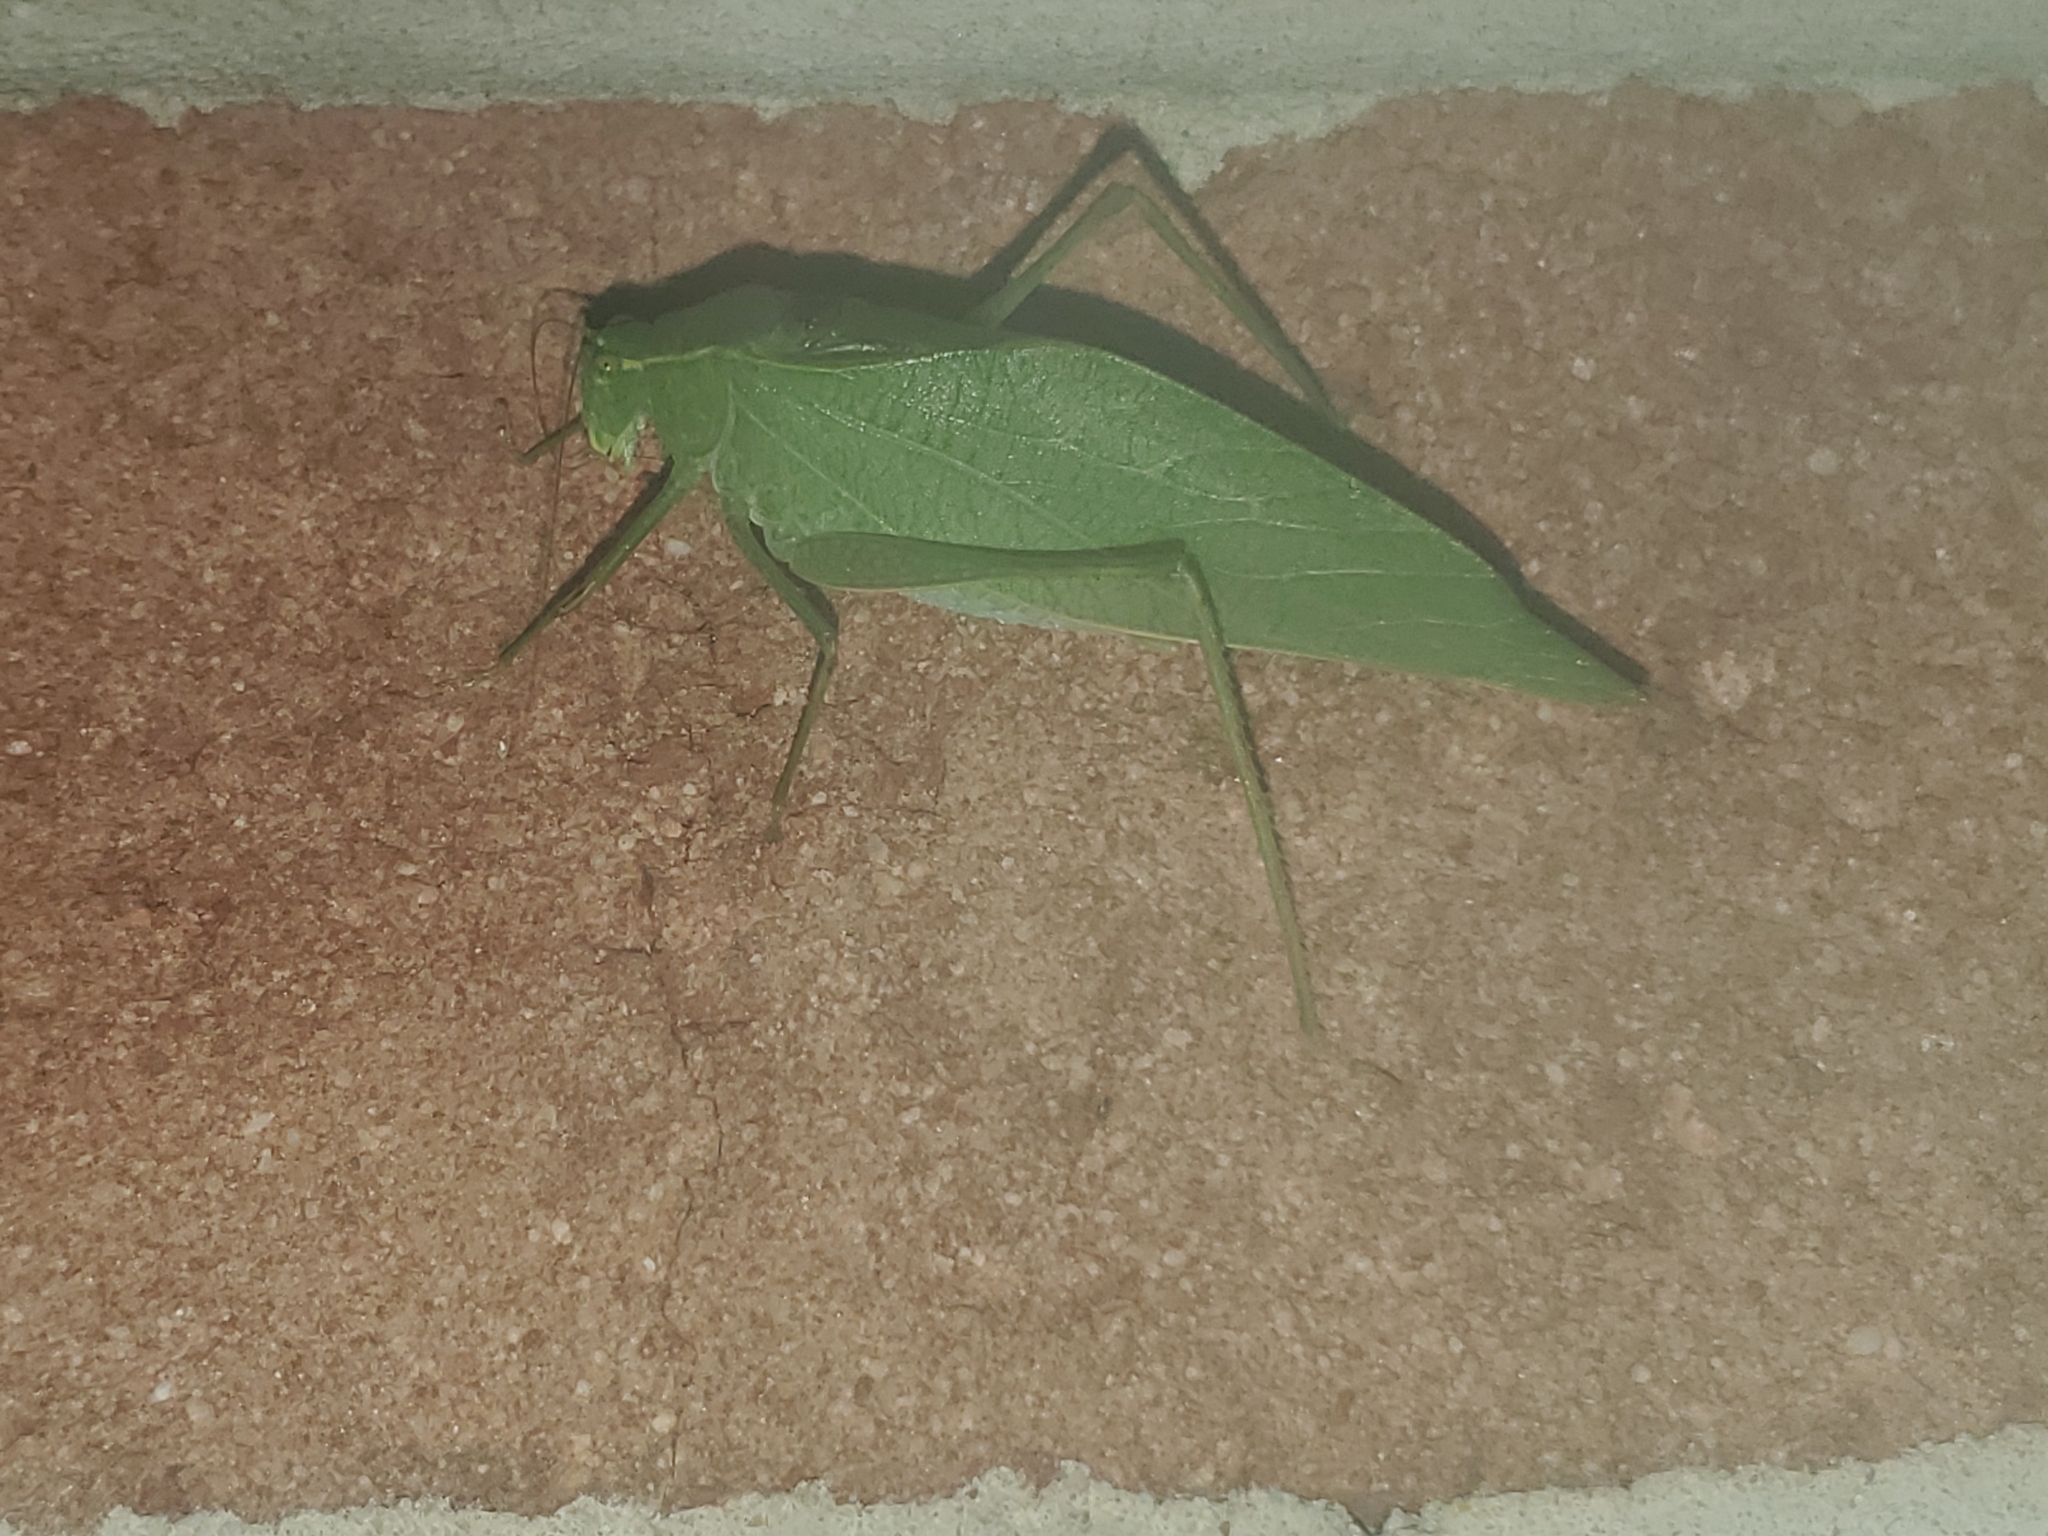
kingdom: Animalia
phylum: Arthropoda
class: Insecta
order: Orthoptera
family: Tettigoniidae
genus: Microcentrum
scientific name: Microcentrum retinerve
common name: Angular-winged katydid
